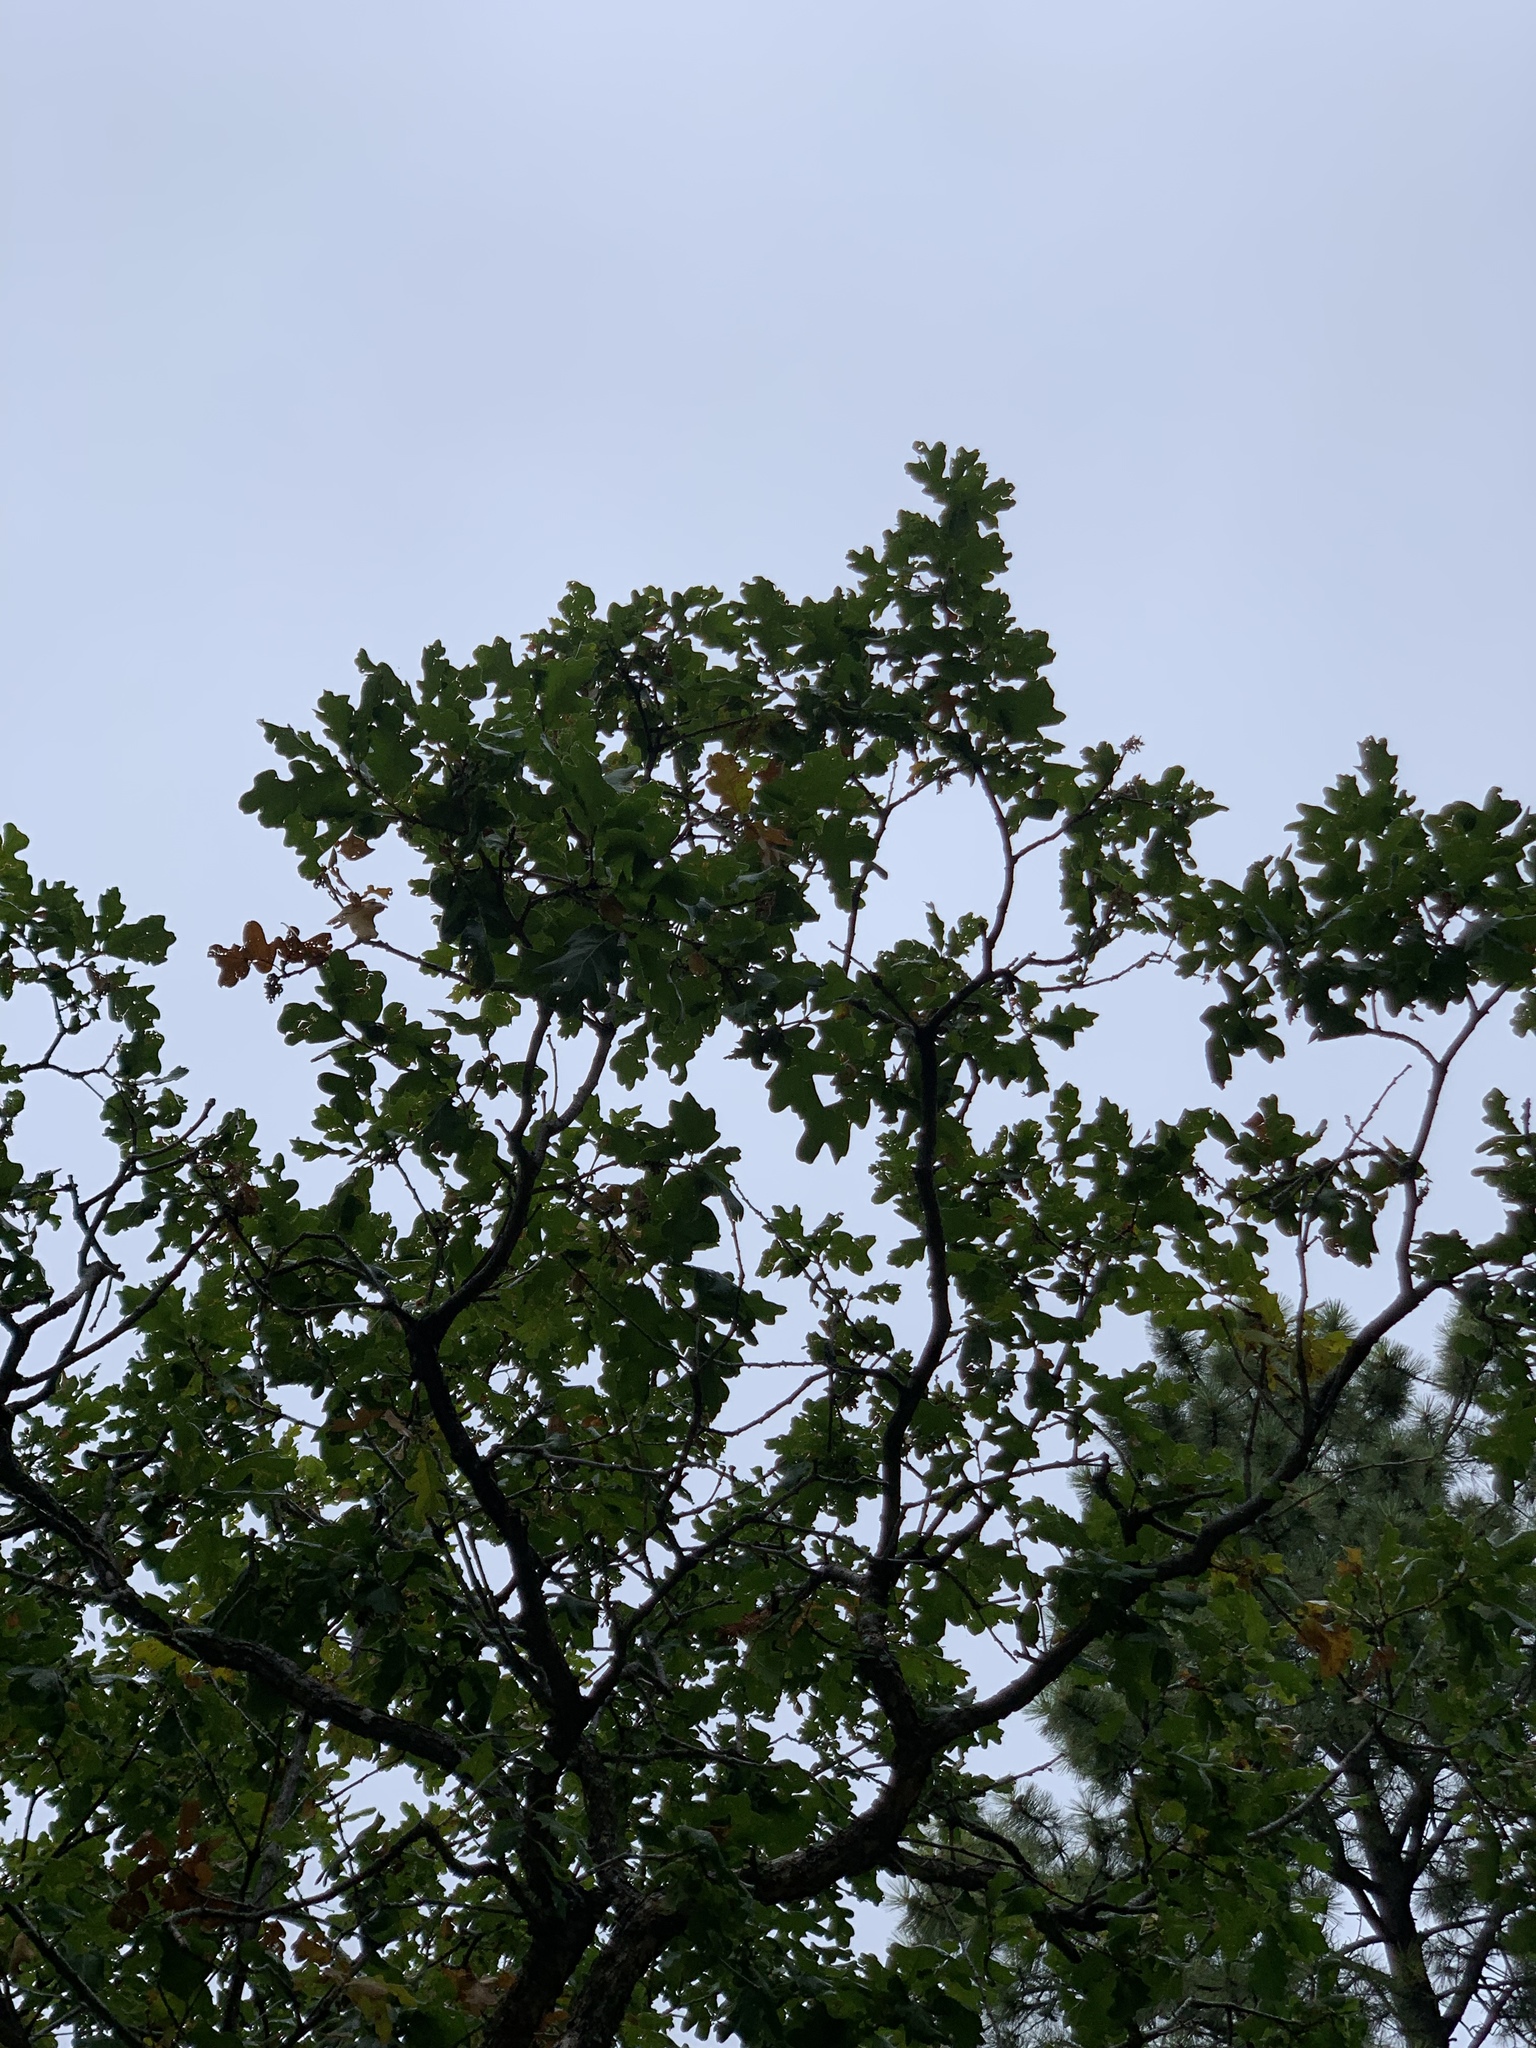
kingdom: Plantae
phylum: Tracheophyta
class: Magnoliopsida
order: Fagales
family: Fagaceae
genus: Quercus
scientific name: Quercus gambelii
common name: Gambel oak
